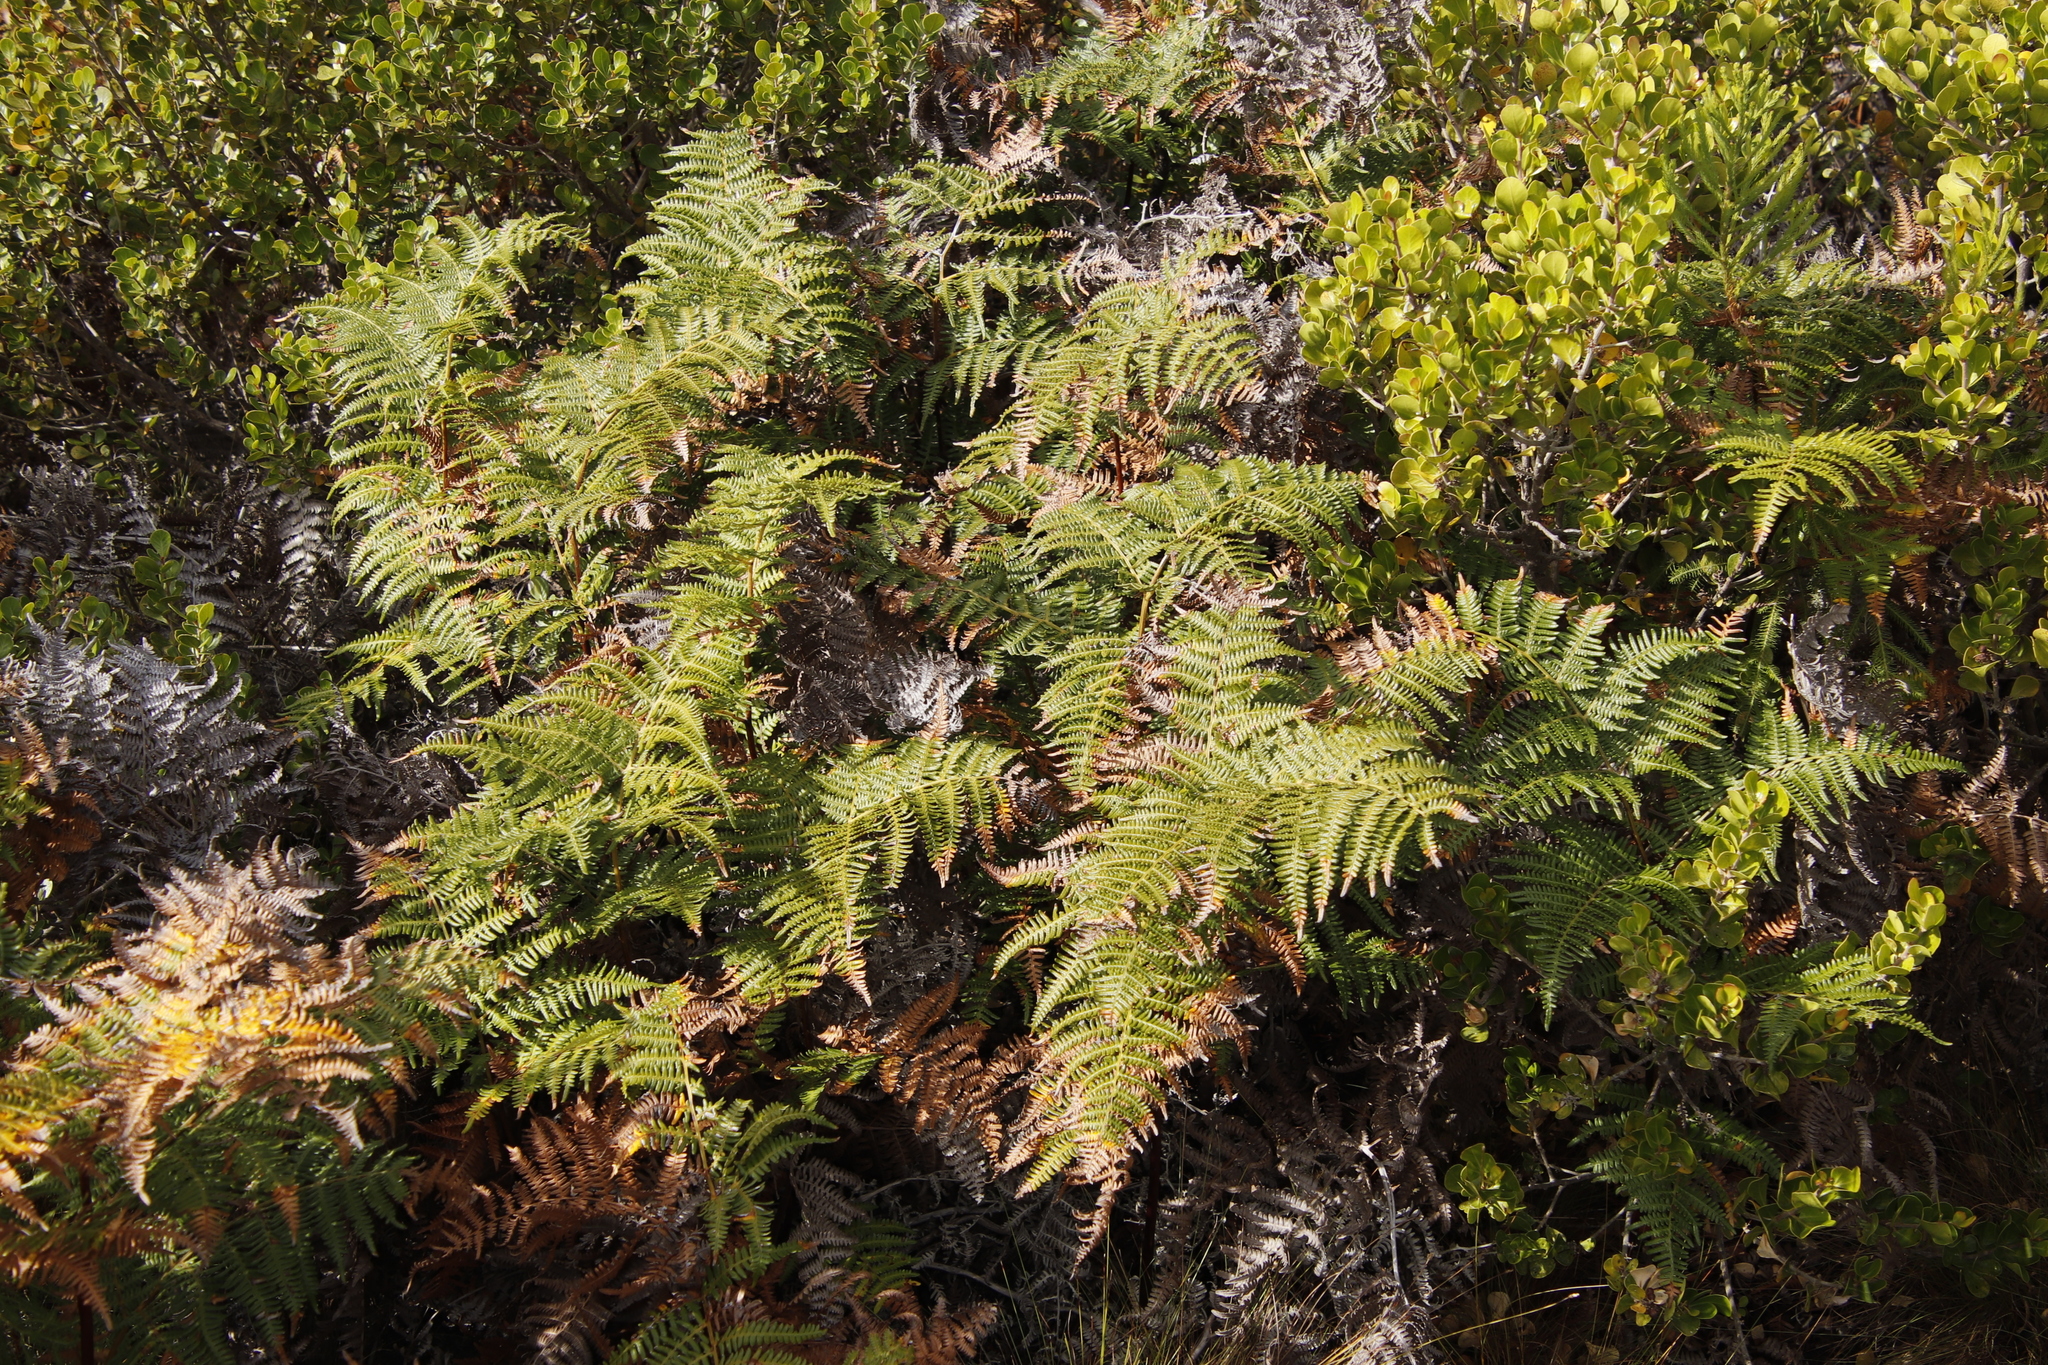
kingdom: Plantae
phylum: Tracheophyta
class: Polypodiopsida
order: Polypodiales
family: Dennstaedtiaceae
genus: Pteridium
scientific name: Pteridium aquilinum
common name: Bracken
